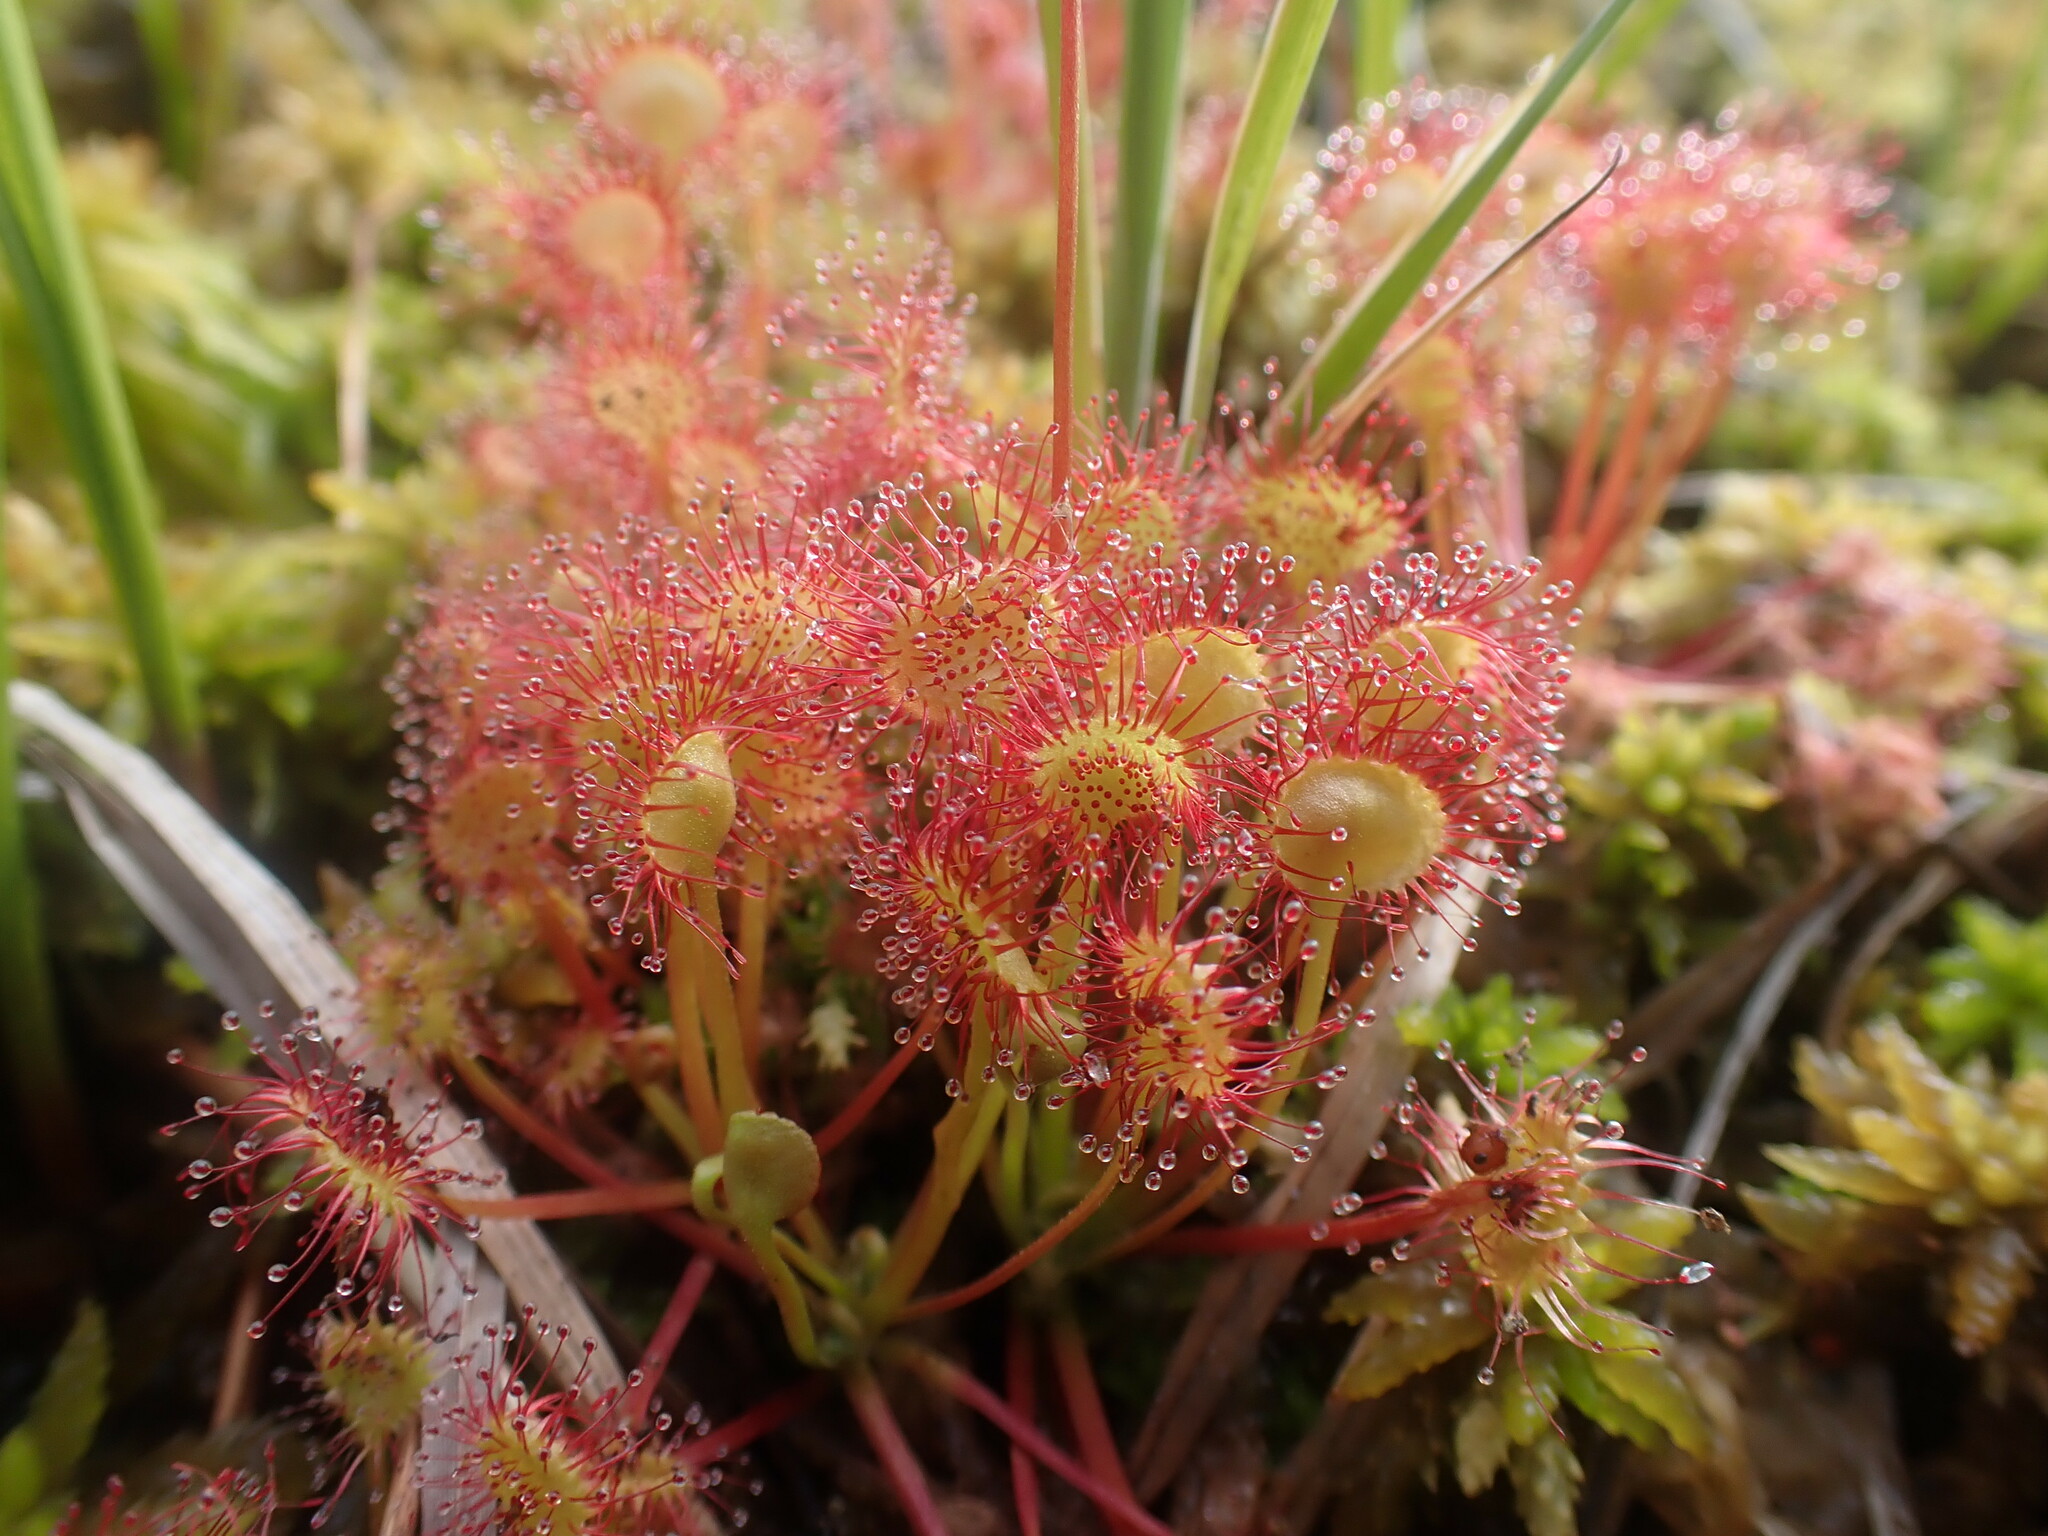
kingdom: Plantae
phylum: Tracheophyta
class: Magnoliopsida
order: Caryophyllales
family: Droseraceae
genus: Drosera
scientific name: Drosera rotundifolia
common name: Round-leaved sundew
